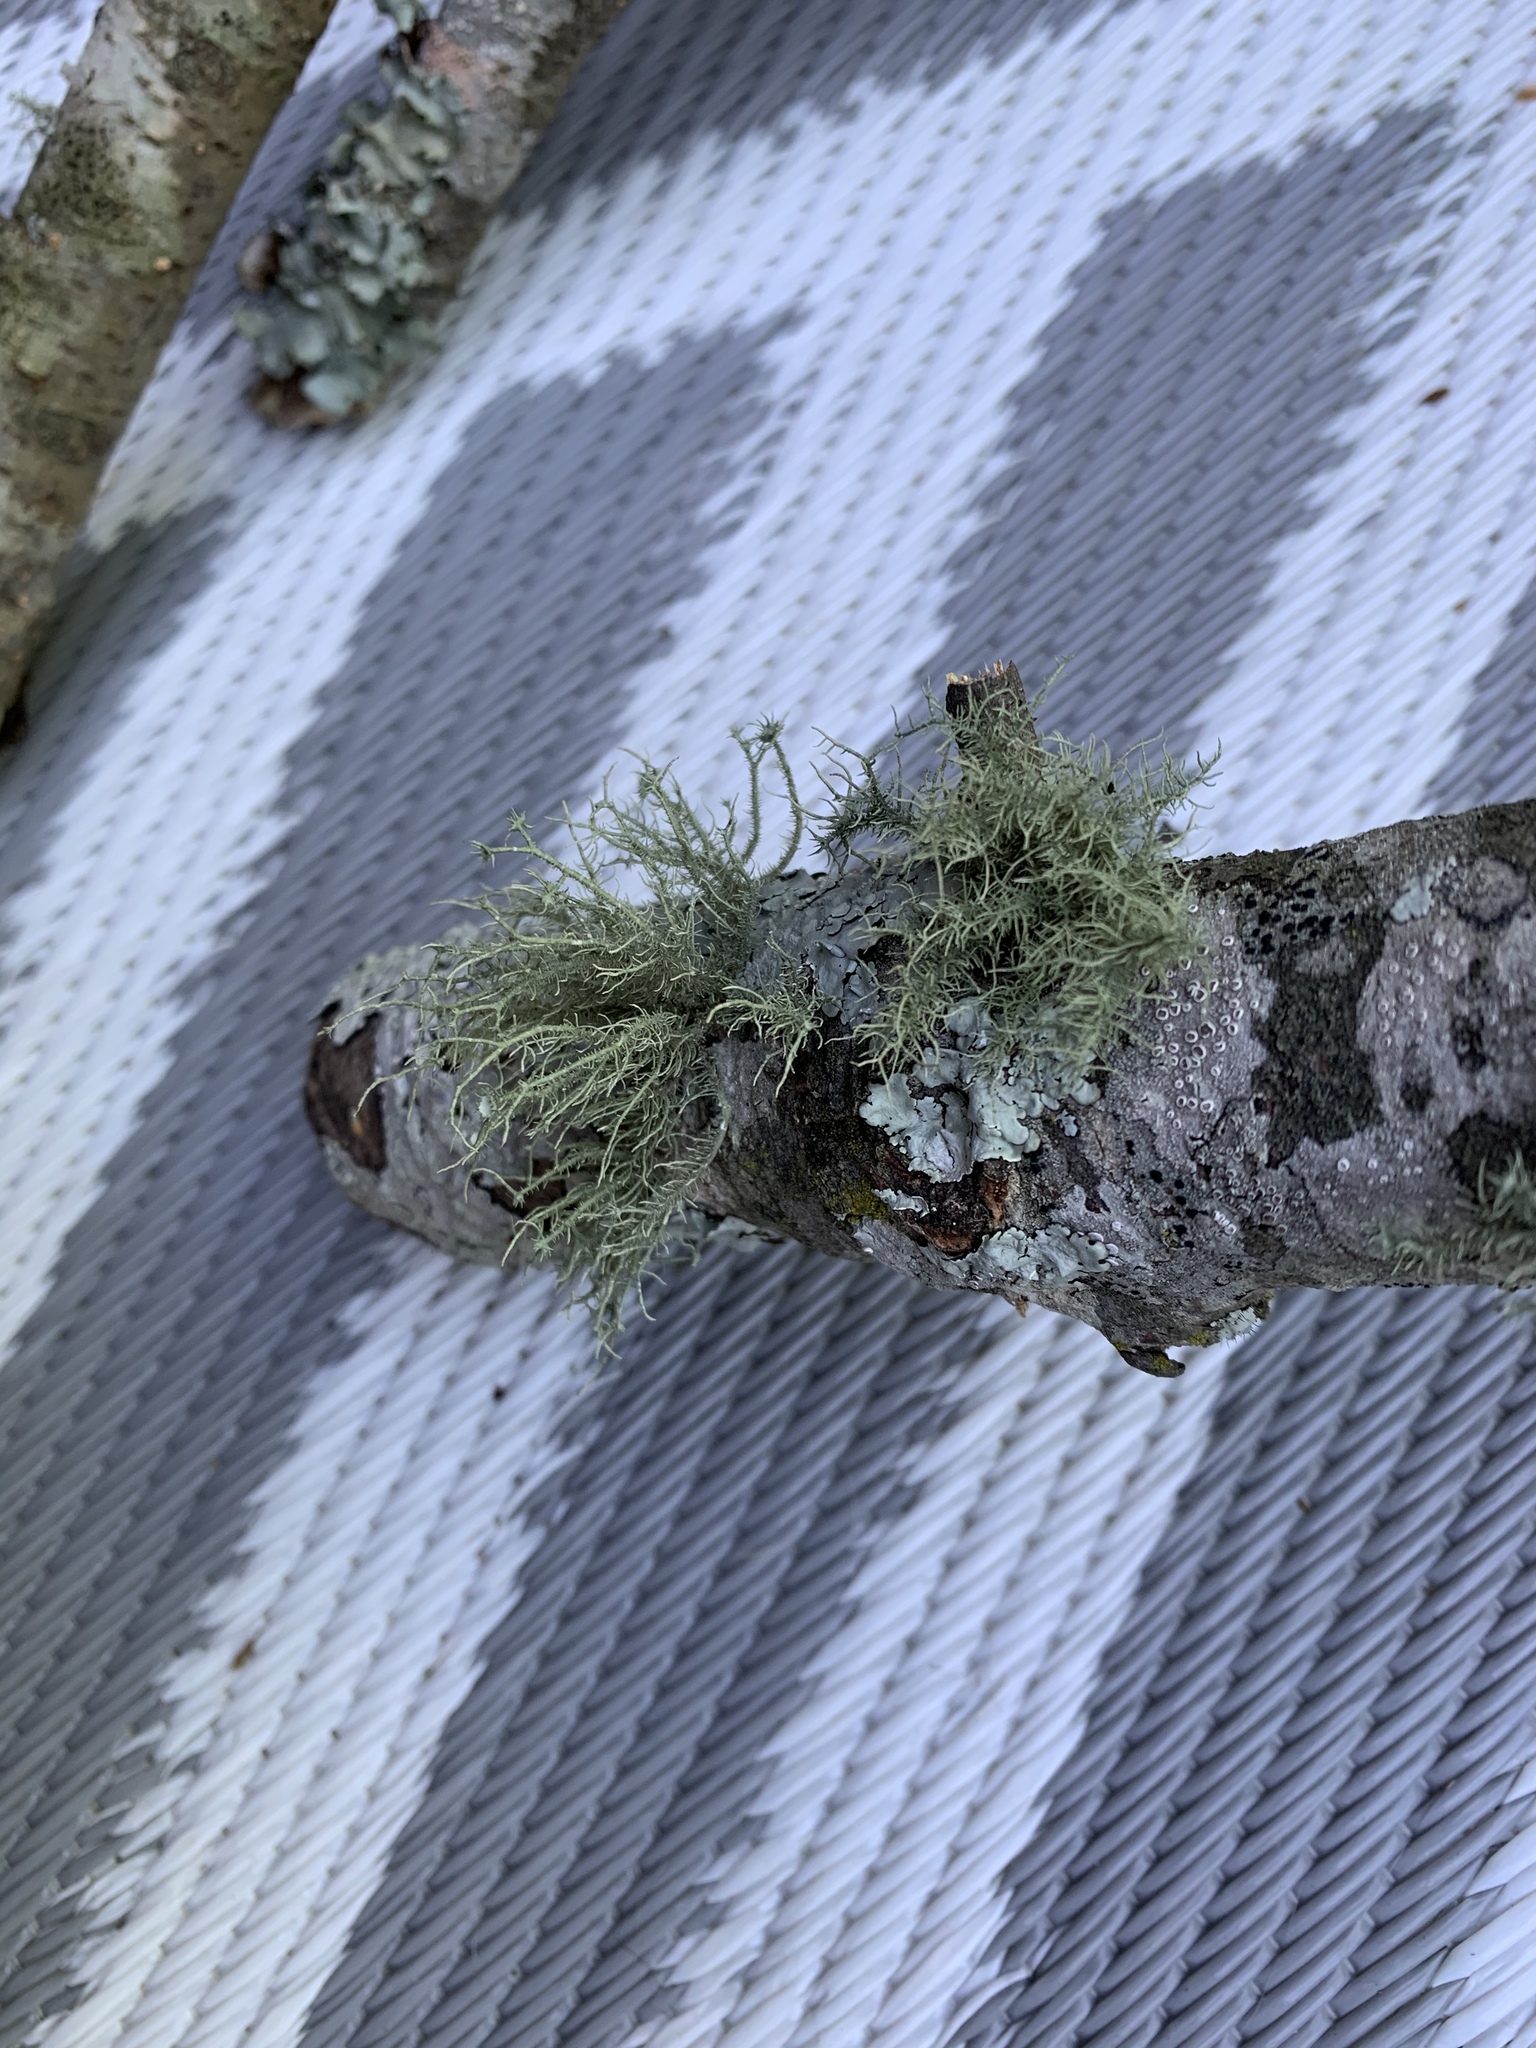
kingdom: Fungi
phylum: Ascomycota
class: Lecanoromycetes
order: Lecanorales
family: Parmeliaceae
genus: Usnea
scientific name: Usnea strigosa
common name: Bushy beard lichen
